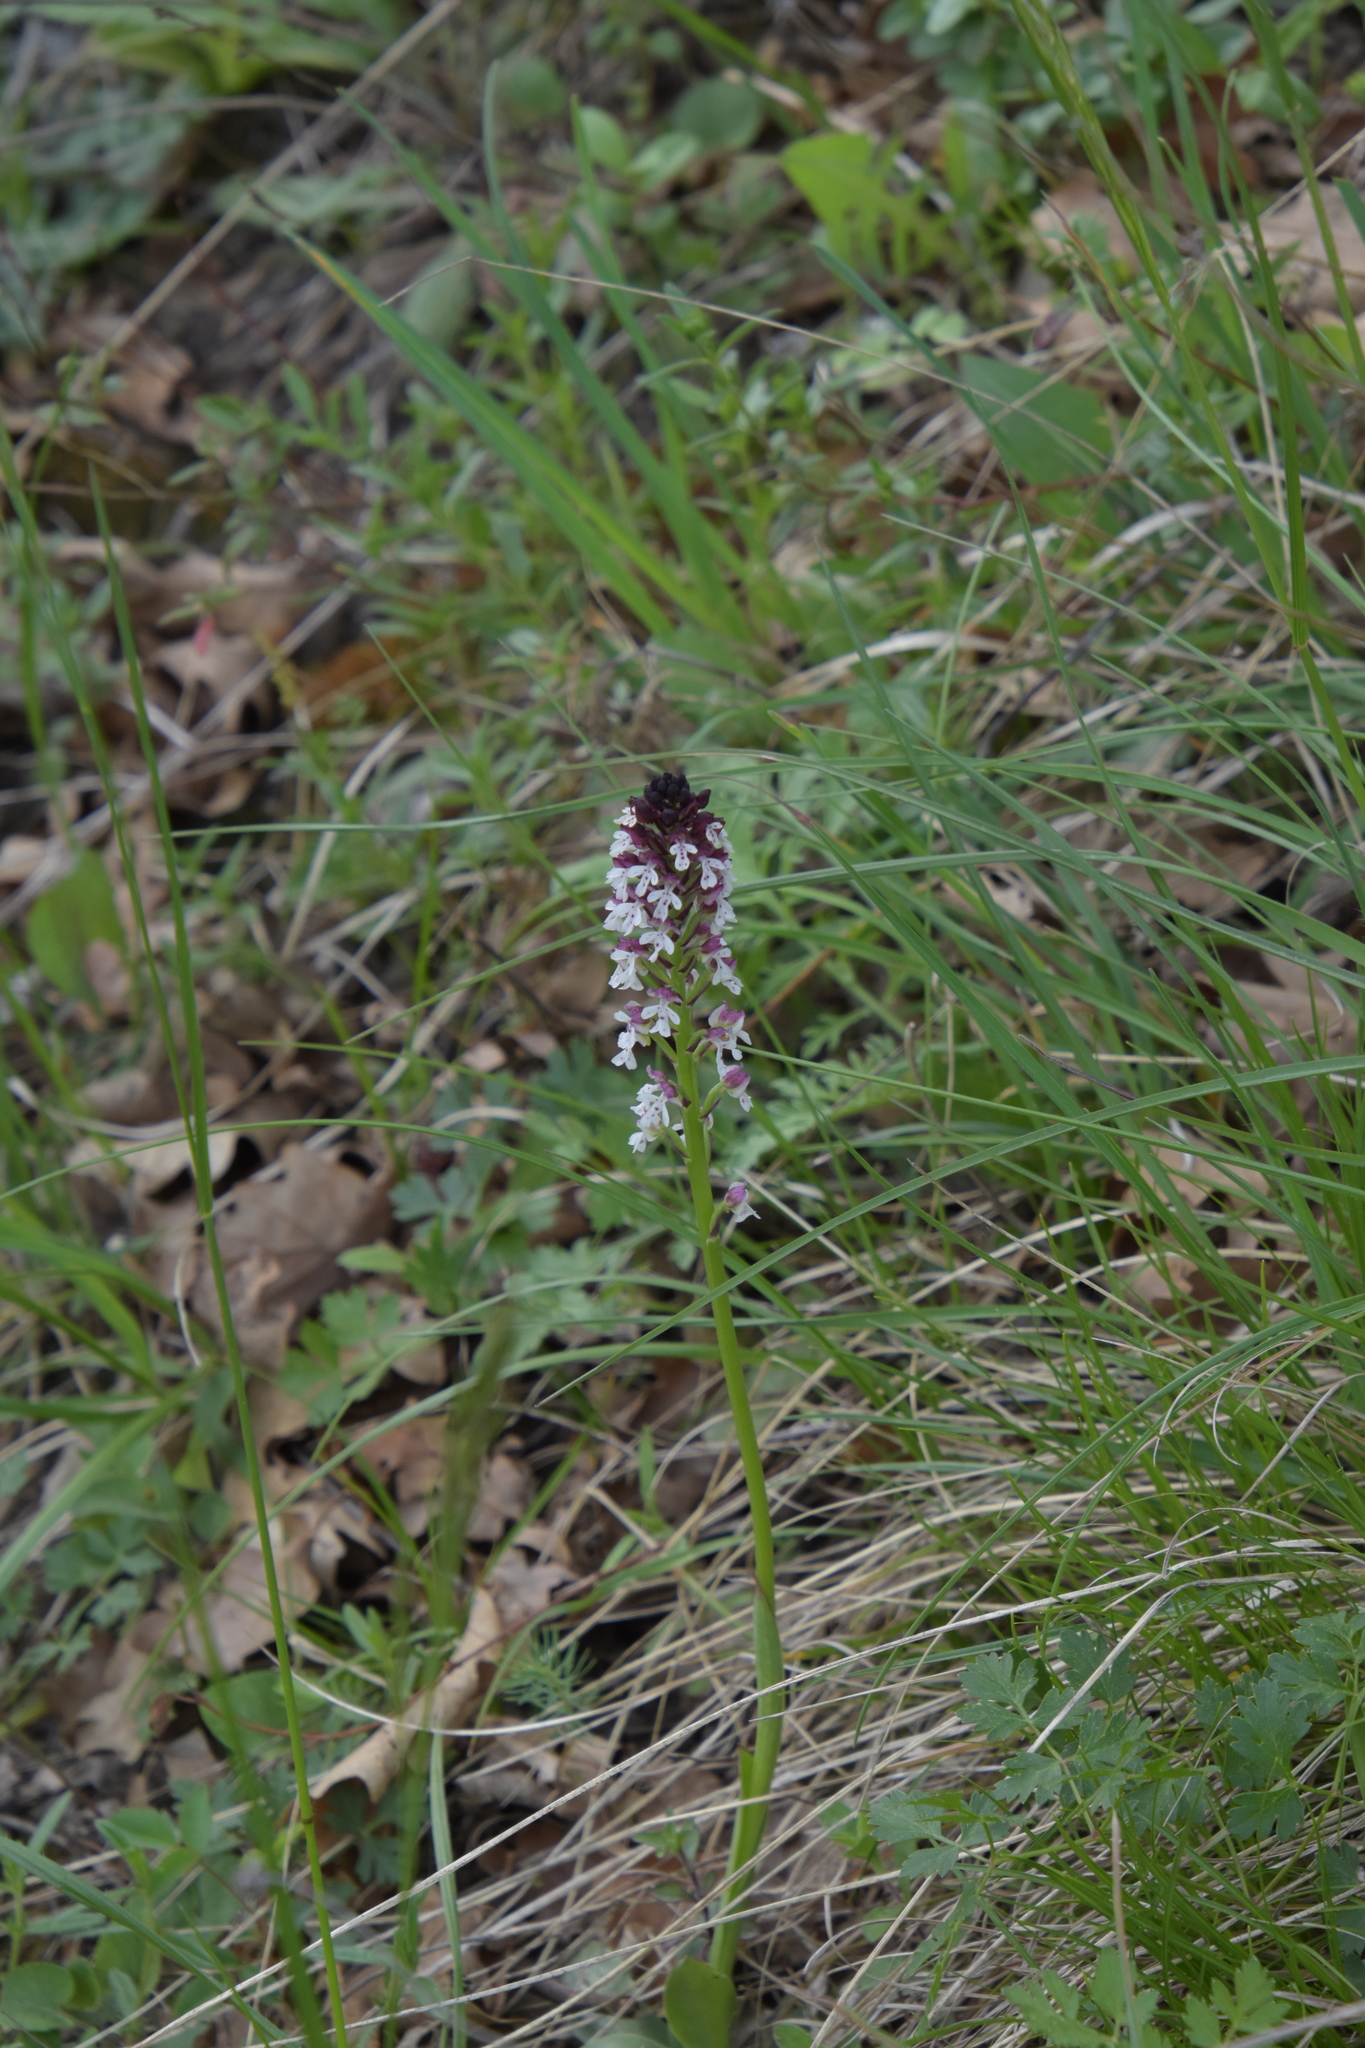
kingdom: Plantae
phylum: Tracheophyta
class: Liliopsida
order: Asparagales
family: Orchidaceae
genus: Neotinea
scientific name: Neotinea ustulata
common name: Burnt orchid
